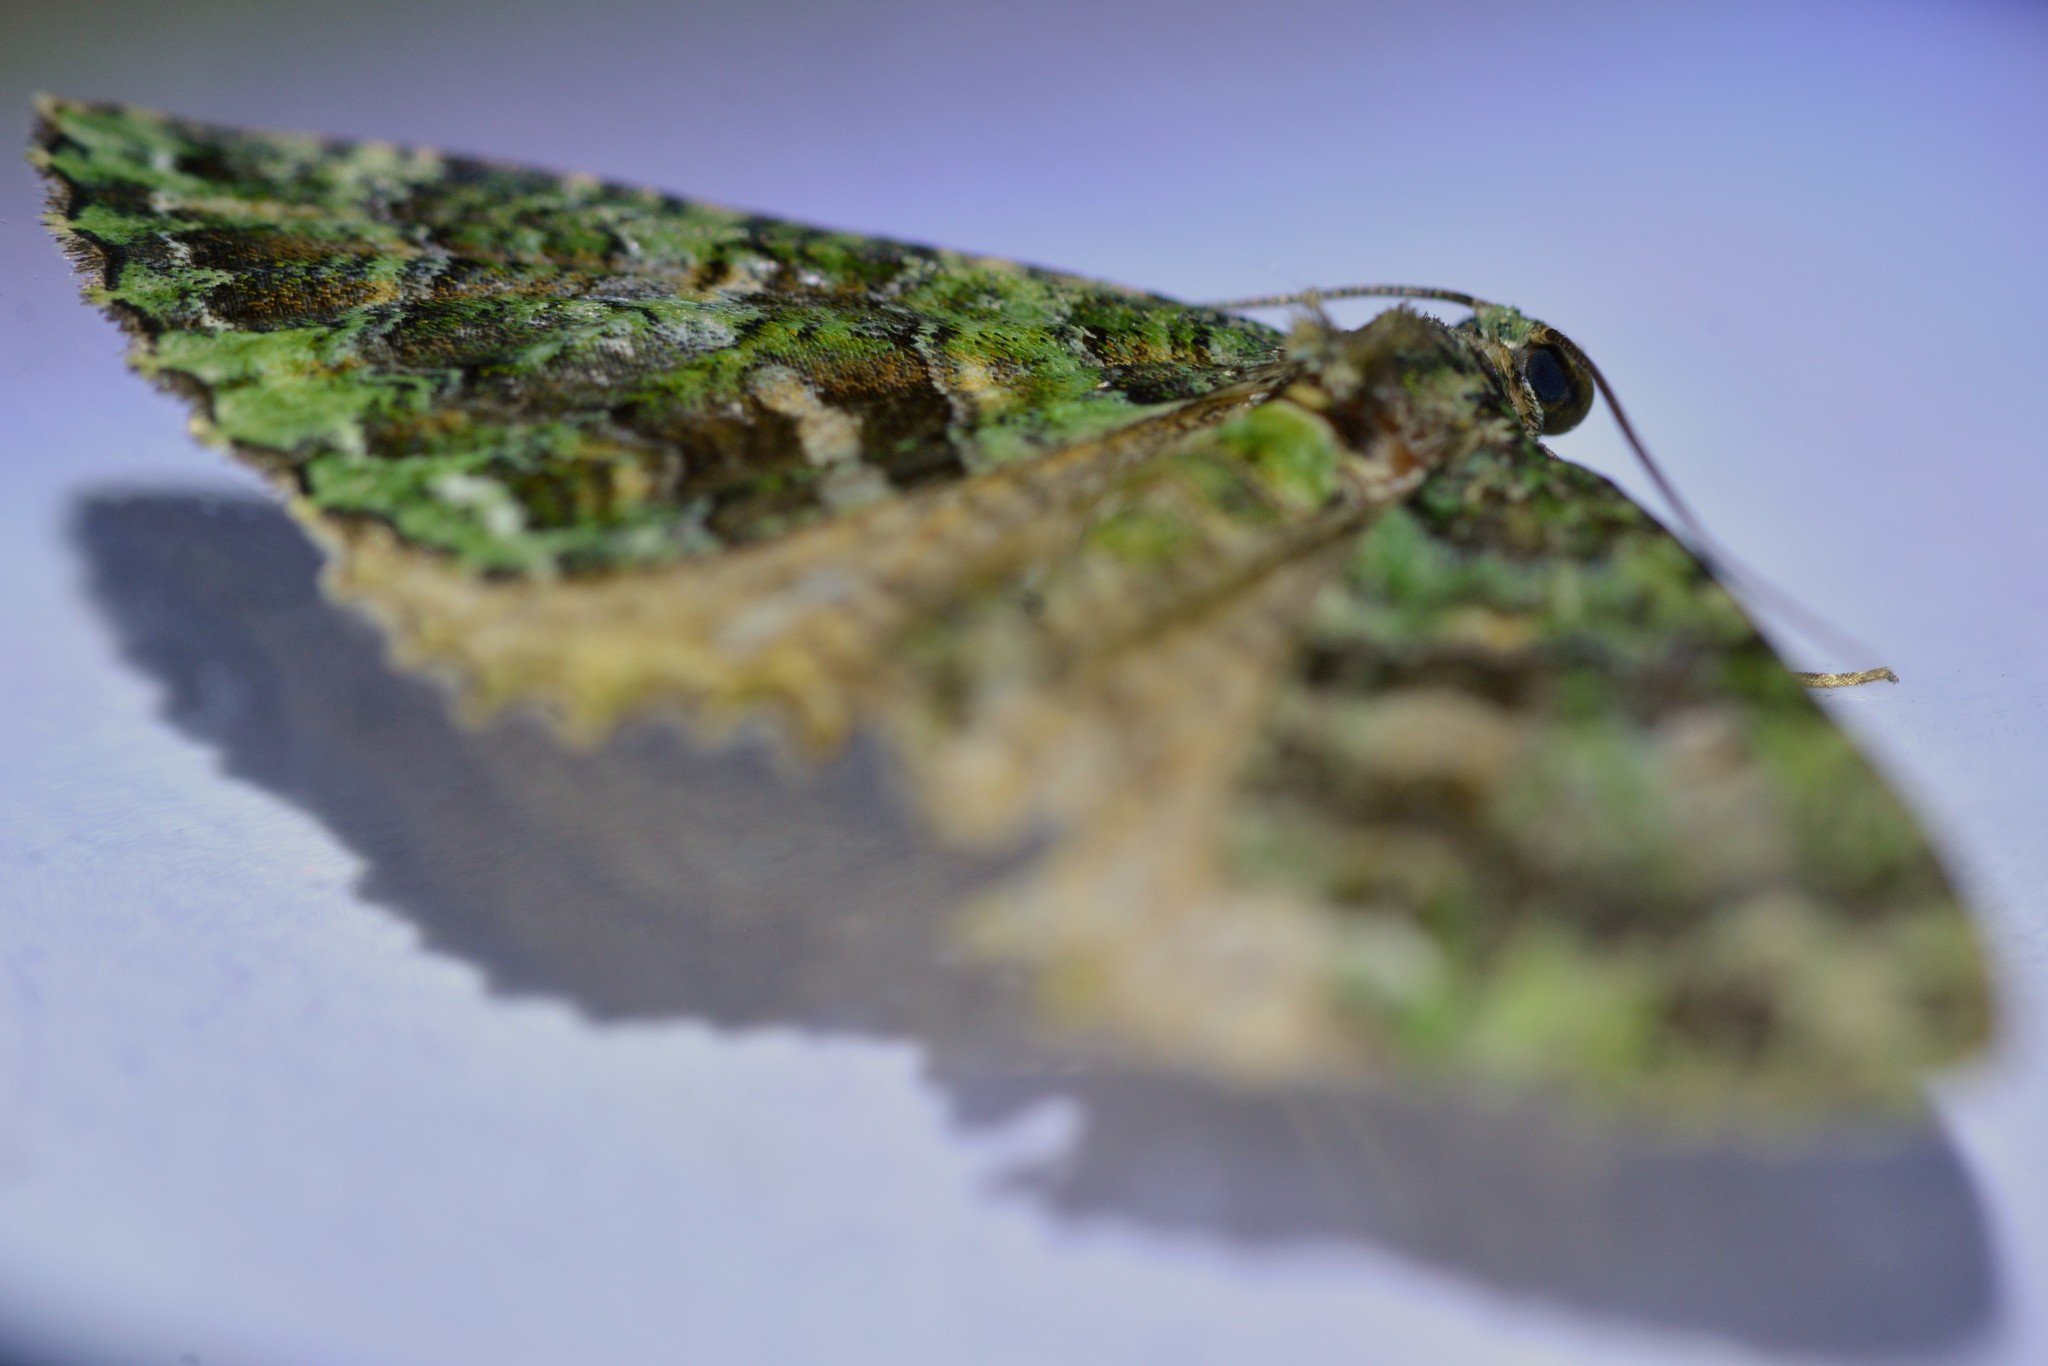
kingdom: Animalia
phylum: Arthropoda
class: Insecta
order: Lepidoptera
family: Geometridae
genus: Austrocidaria
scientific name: Austrocidaria similata
